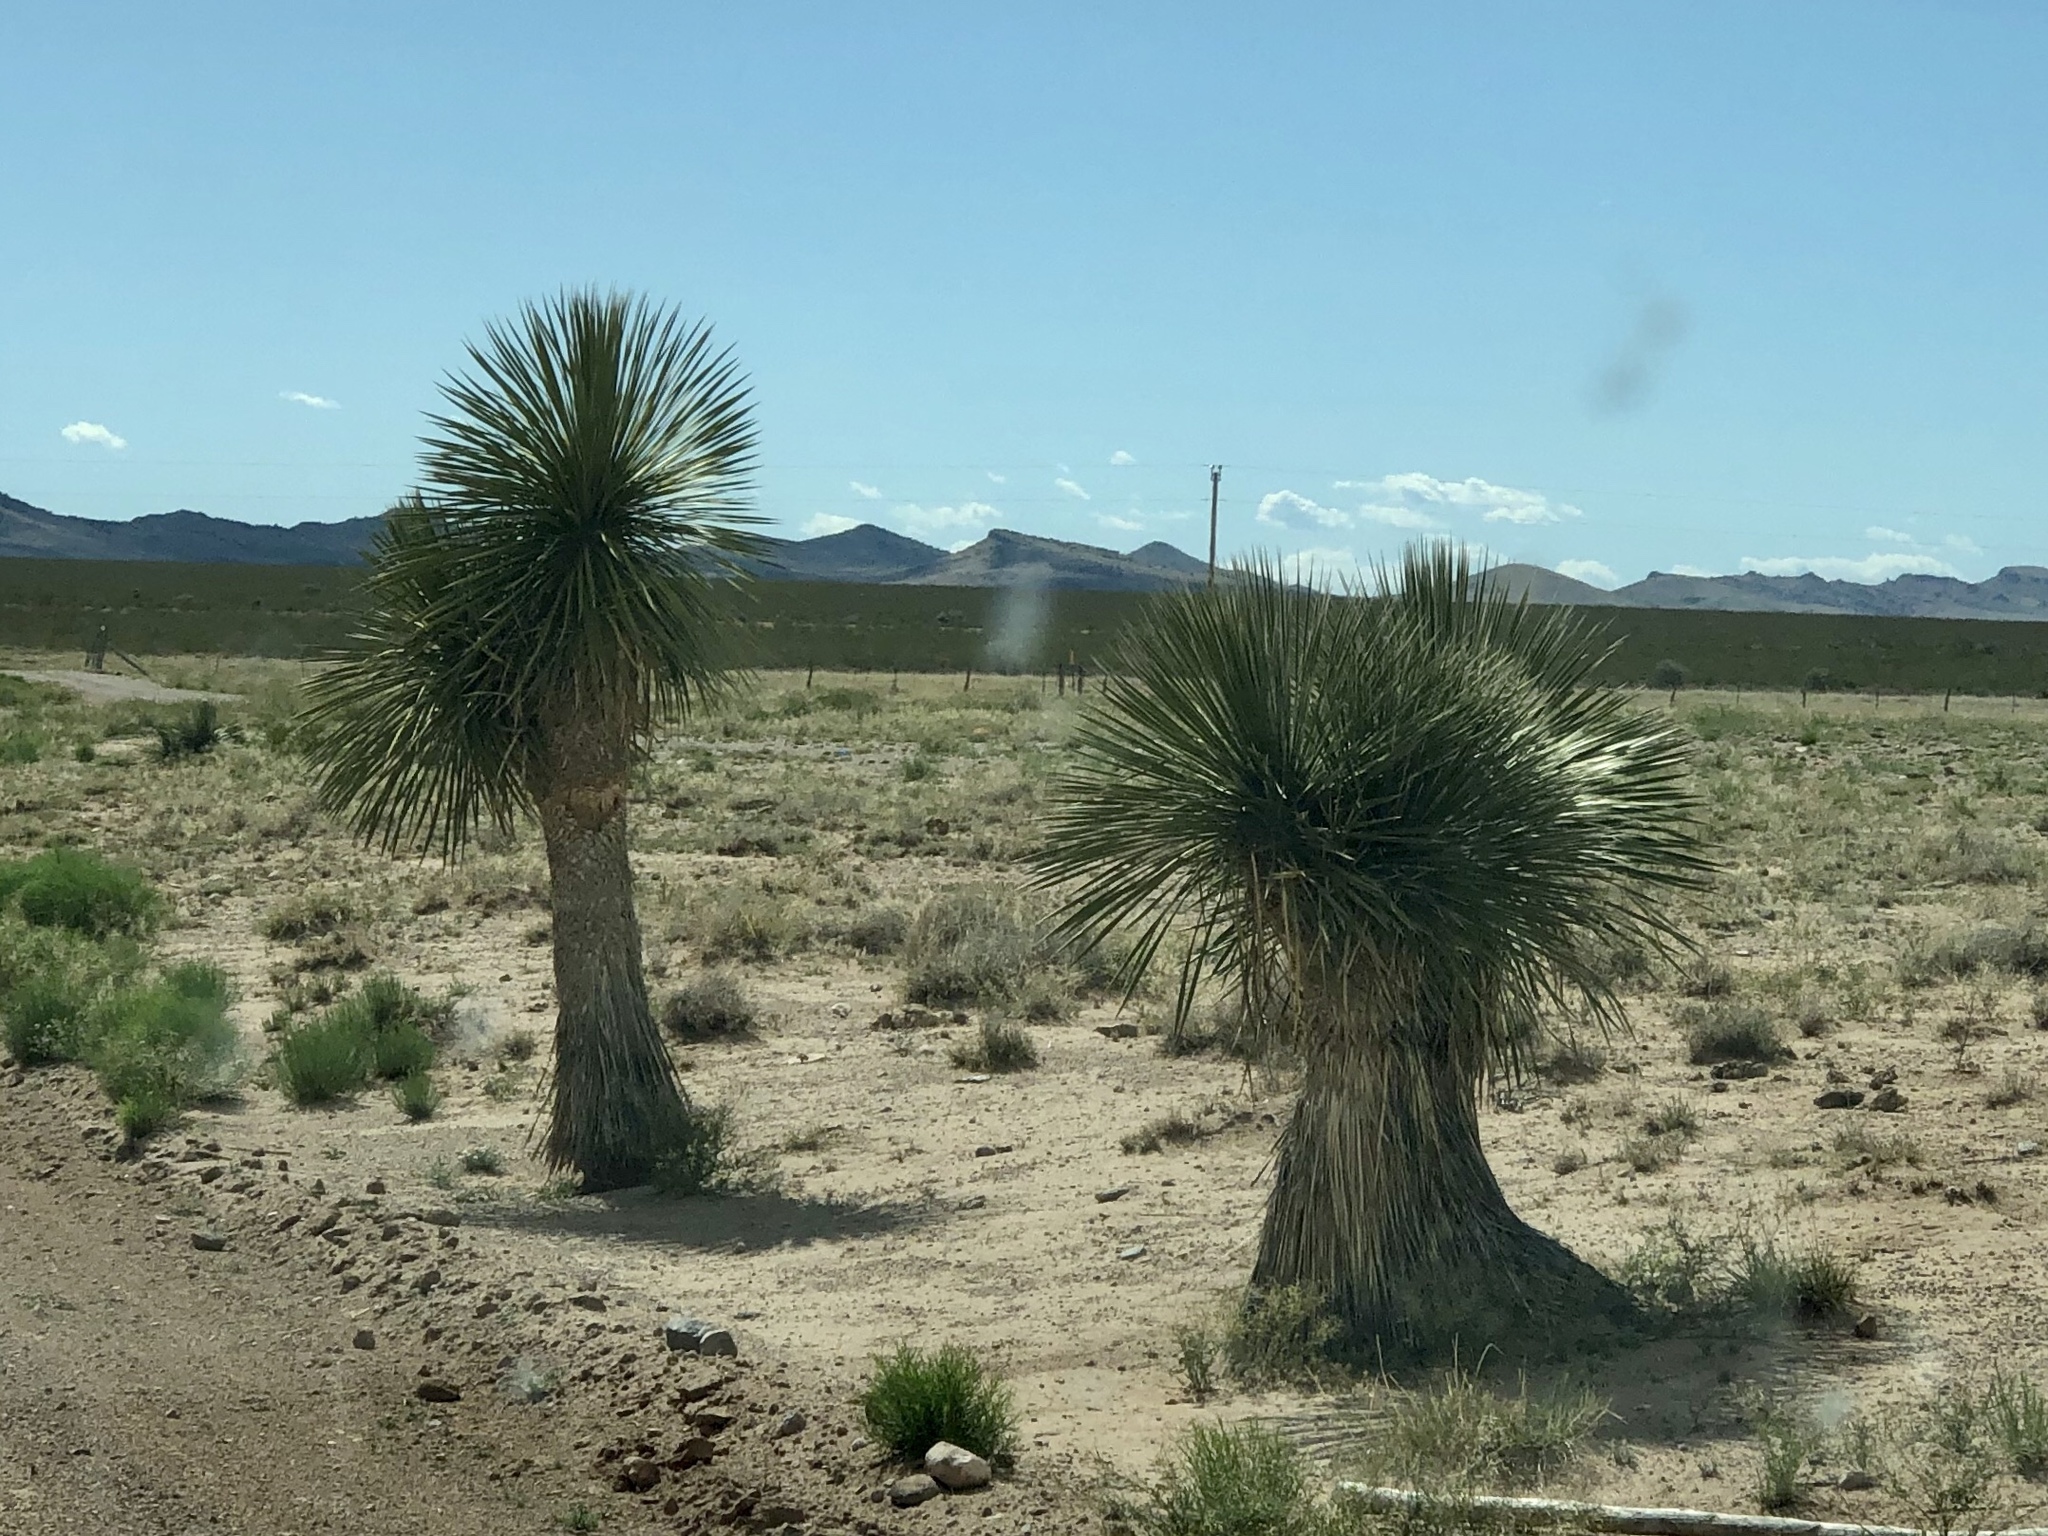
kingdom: Plantae
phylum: Tracheophyta
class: Liliopsida
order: Asparagales
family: Asparagaceae
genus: Yucca
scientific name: Yucca elata
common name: Palmella
